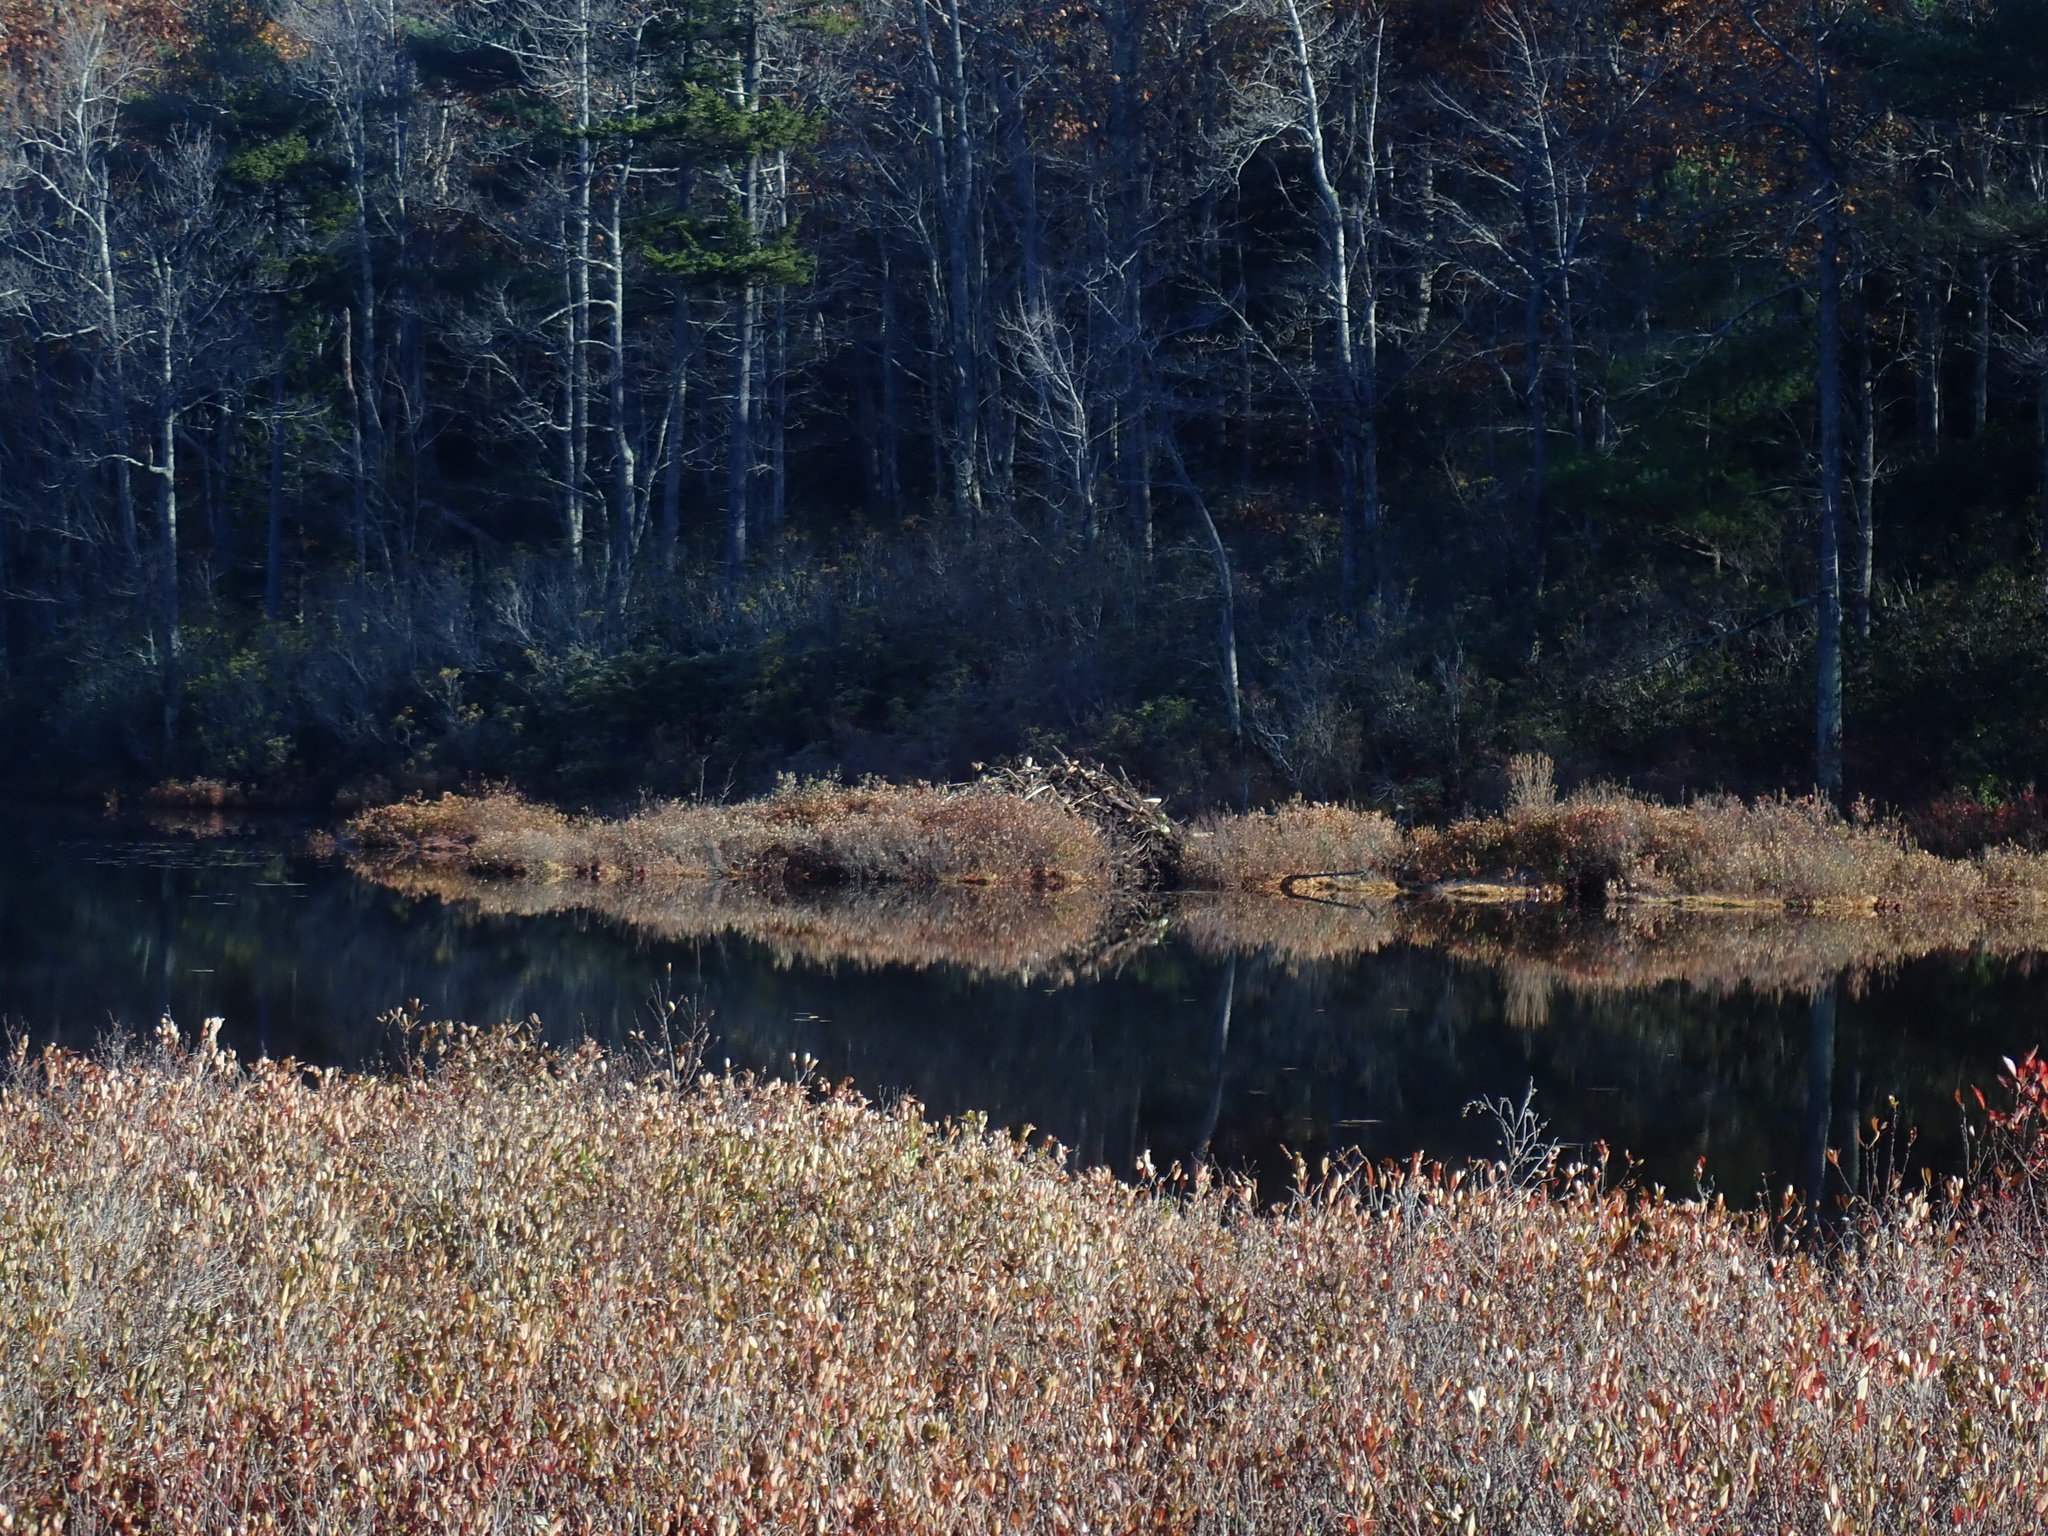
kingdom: Animalia
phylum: Chordata
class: Mammalia
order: Rodentia
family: Castoridae
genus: Castor
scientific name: Castor canadensis
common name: American beaver
